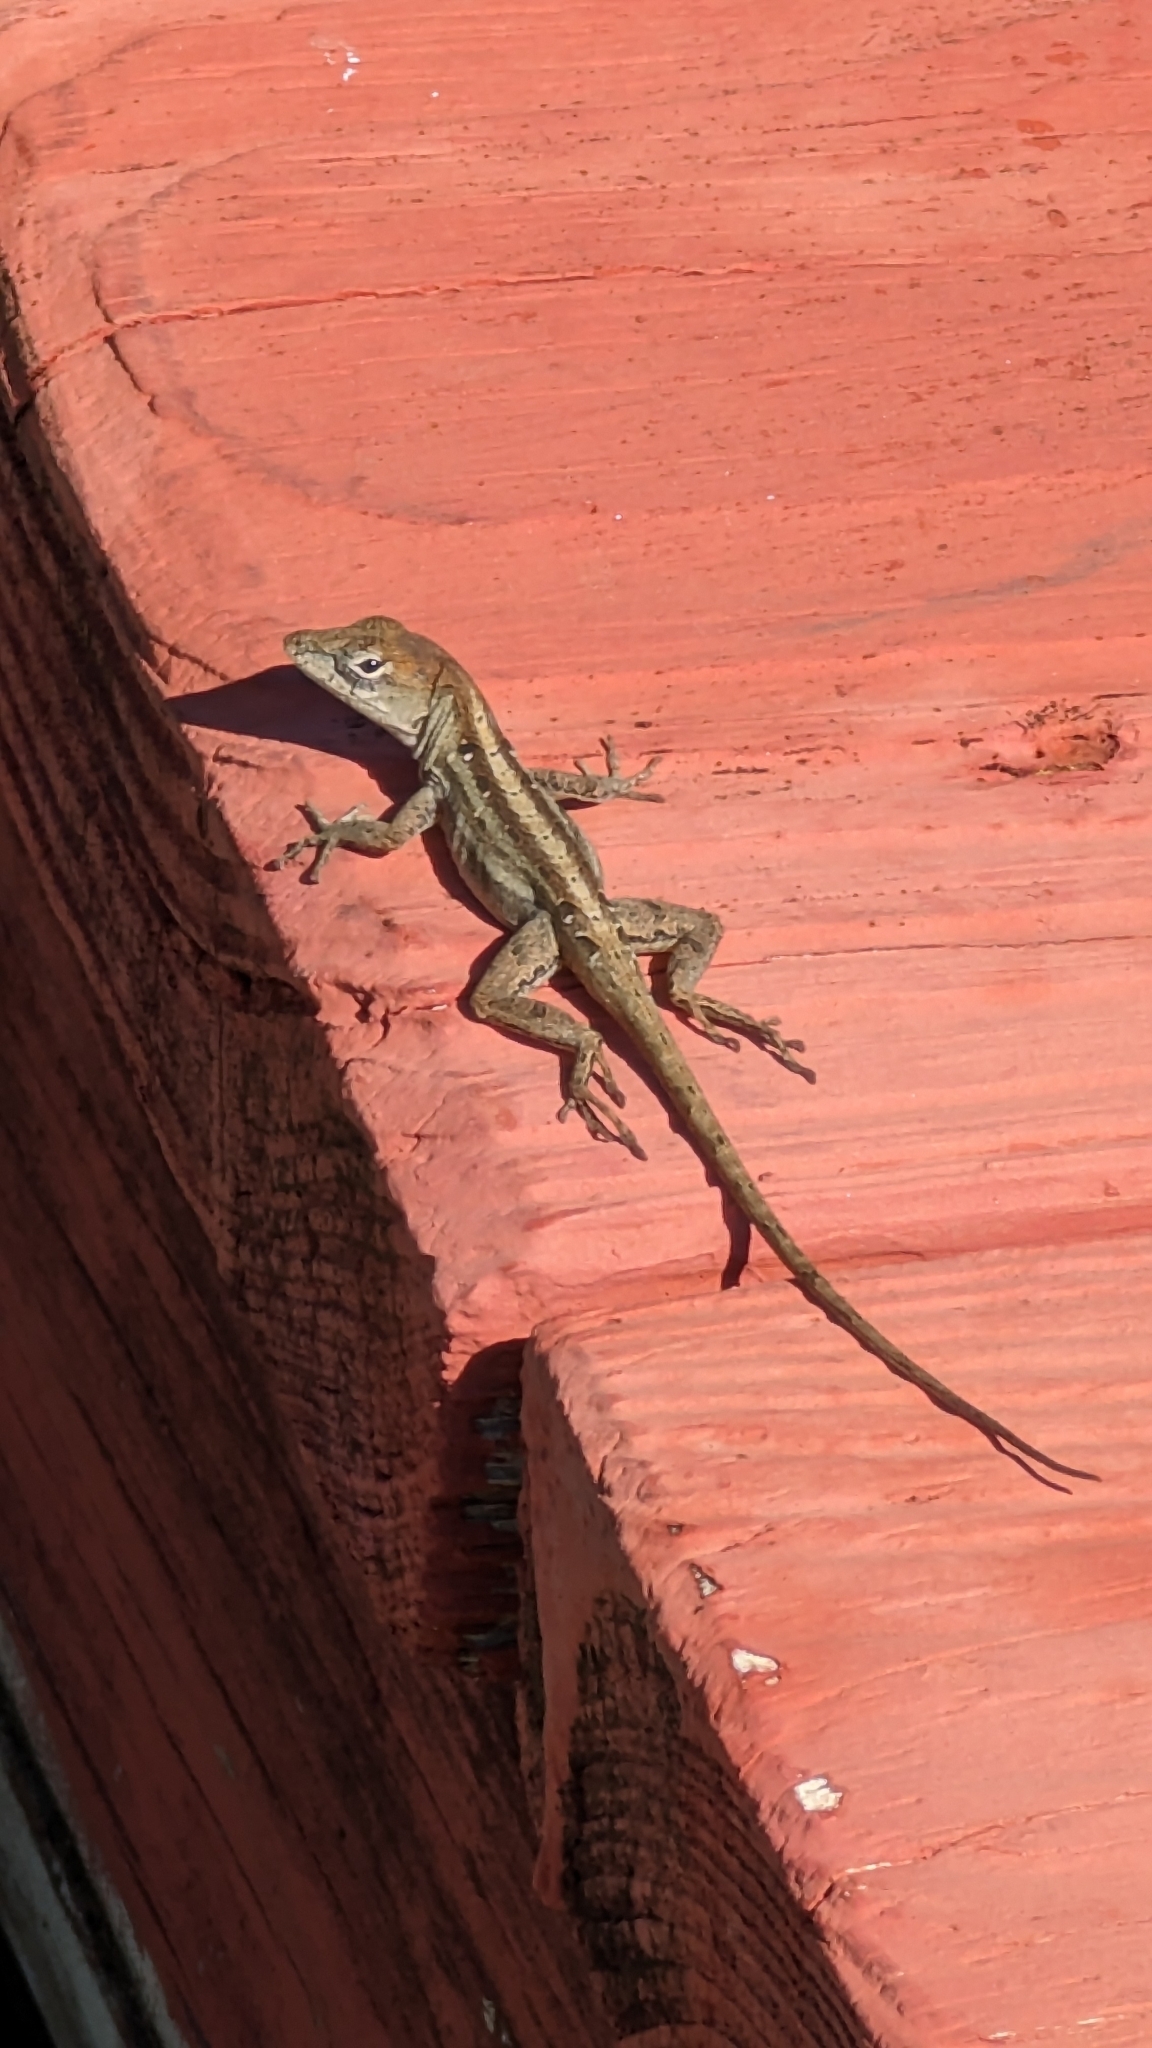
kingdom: Animalia
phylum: Chordata
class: Squamata
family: Dactyloidae
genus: Anolis
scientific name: Anolis sagrei
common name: Brown anole
